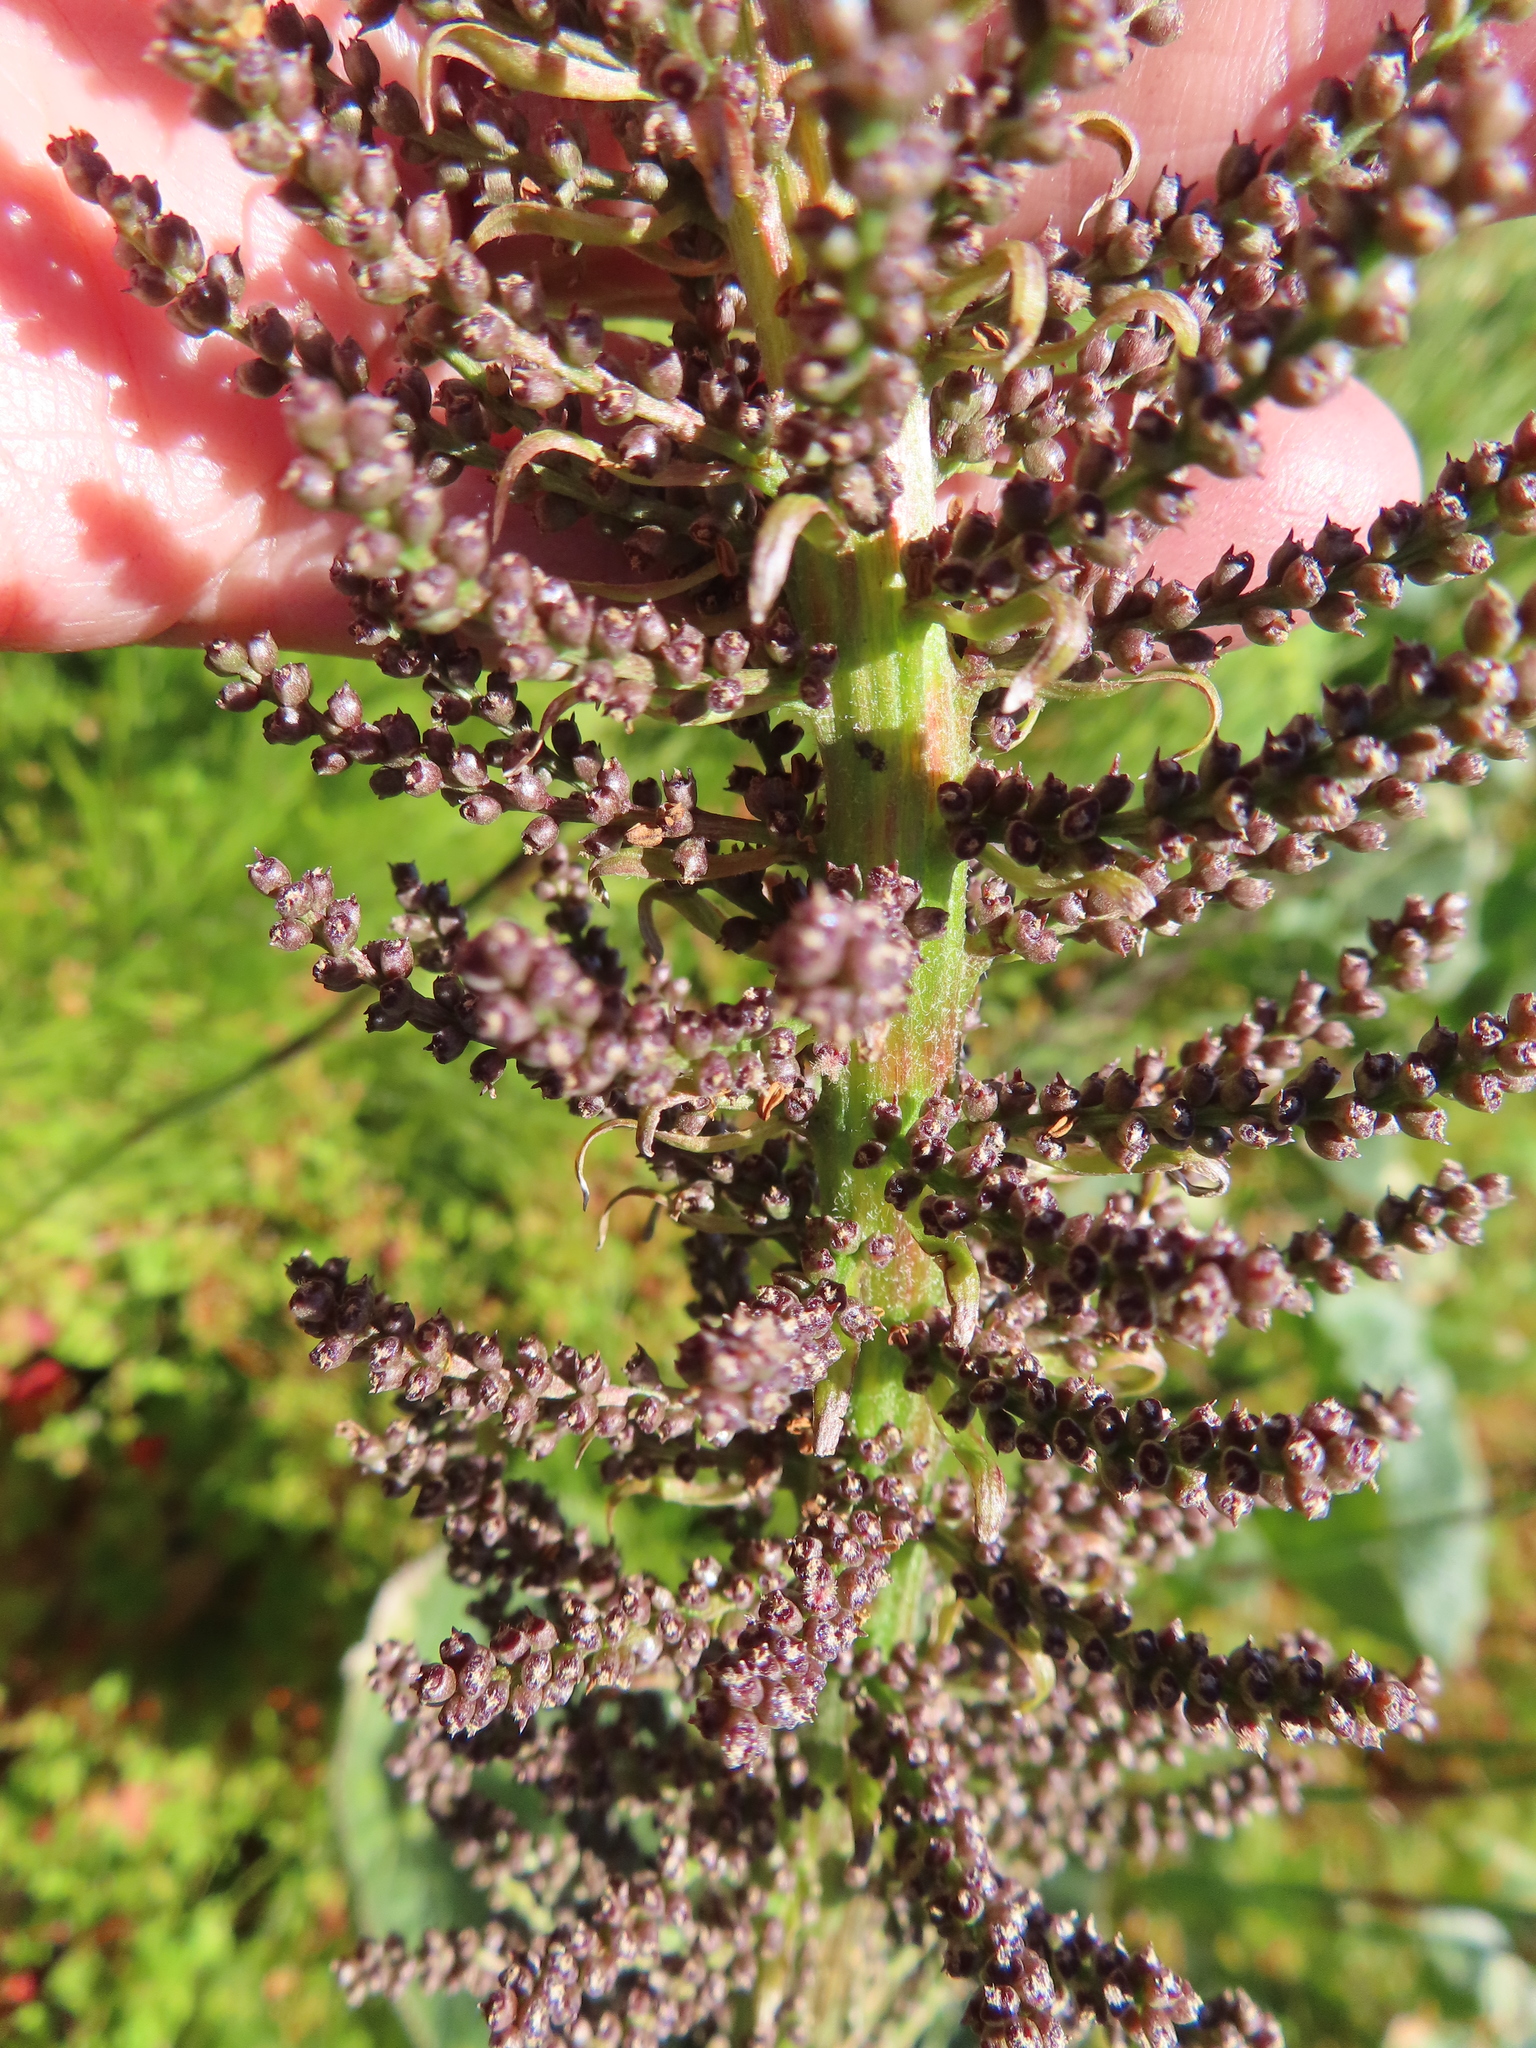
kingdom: Plantae
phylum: Tracheophyta
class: Magnoliopsida
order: Gunnerales
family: Gunneraceae
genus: Gunnera
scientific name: Gunnera perpensa
